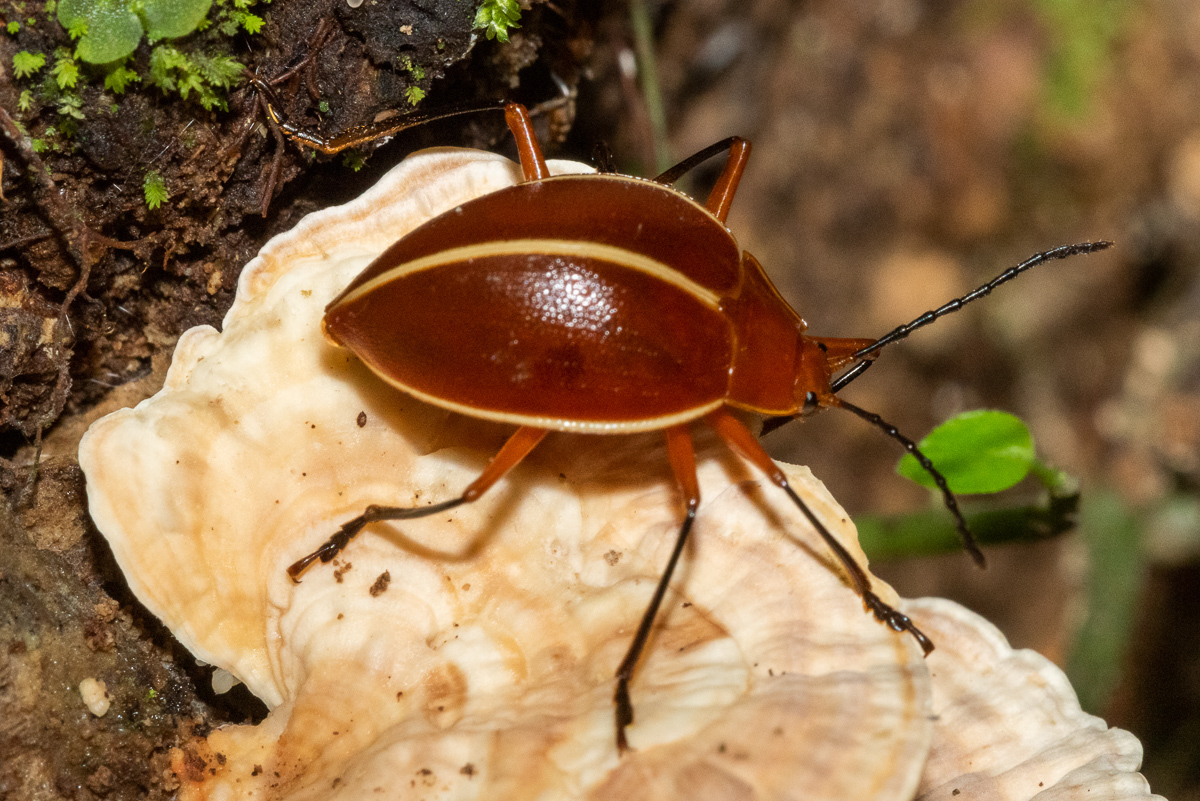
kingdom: Animalia
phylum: Arthropoda
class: Insecta
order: Coleoptera
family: Erotylidae
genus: Ellipticus
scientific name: Ellipticus
